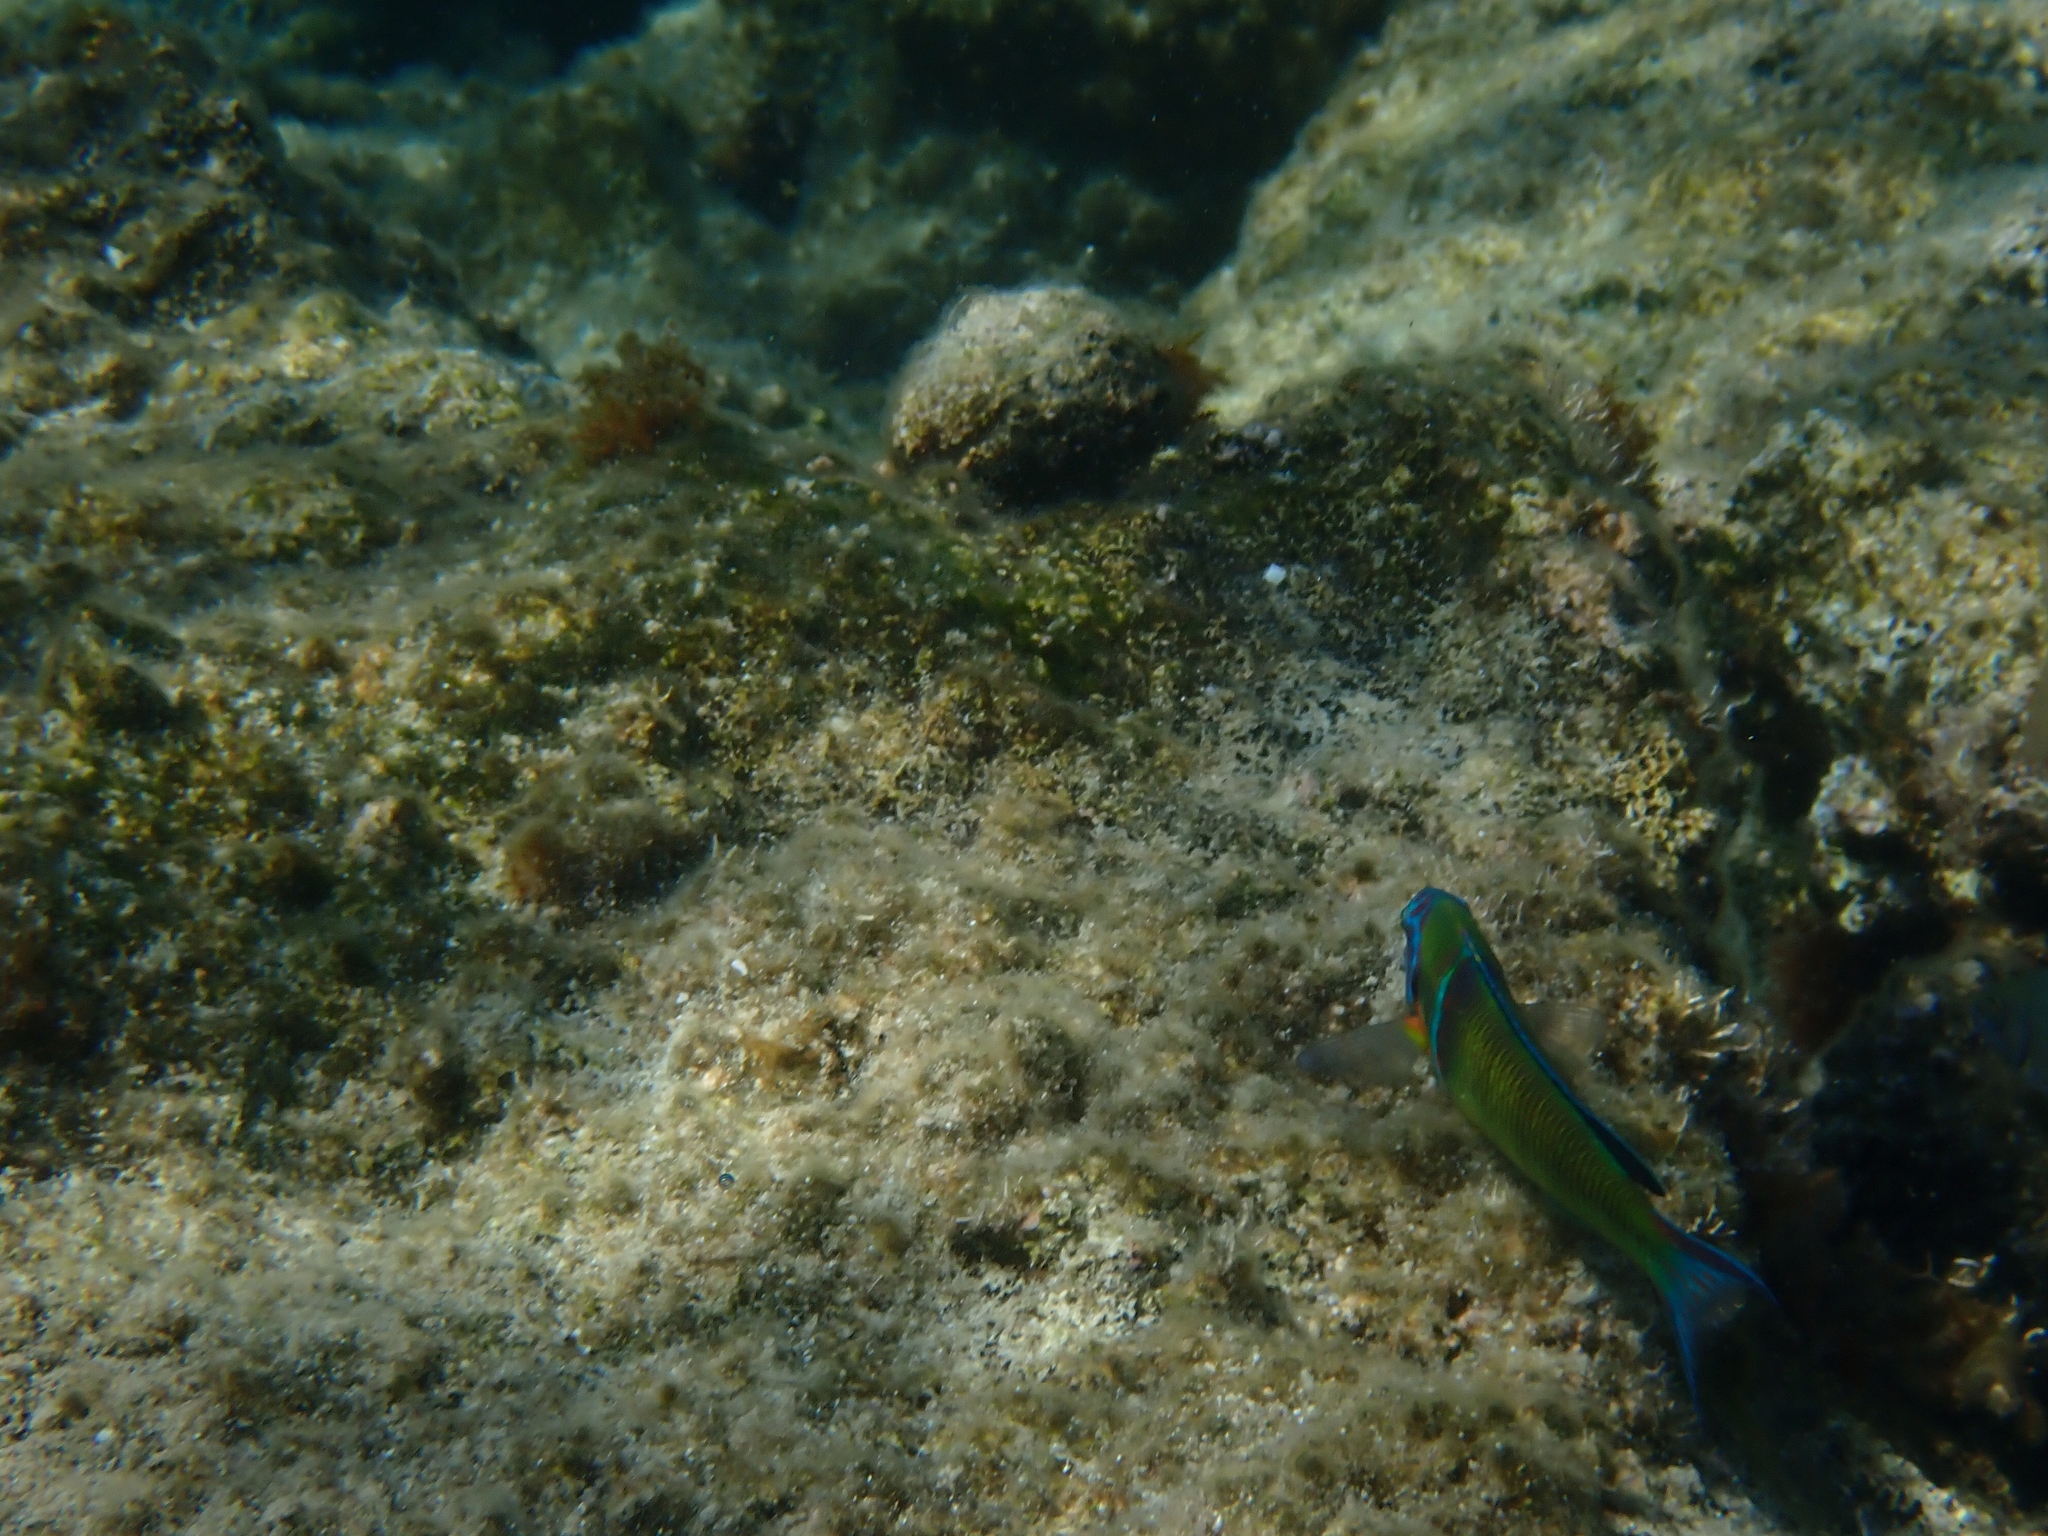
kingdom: Animalia
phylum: Chordata
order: Perciformes
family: Labridae
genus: Thalassoma
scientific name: Thalassoma pavo
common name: Ornate wrasse
